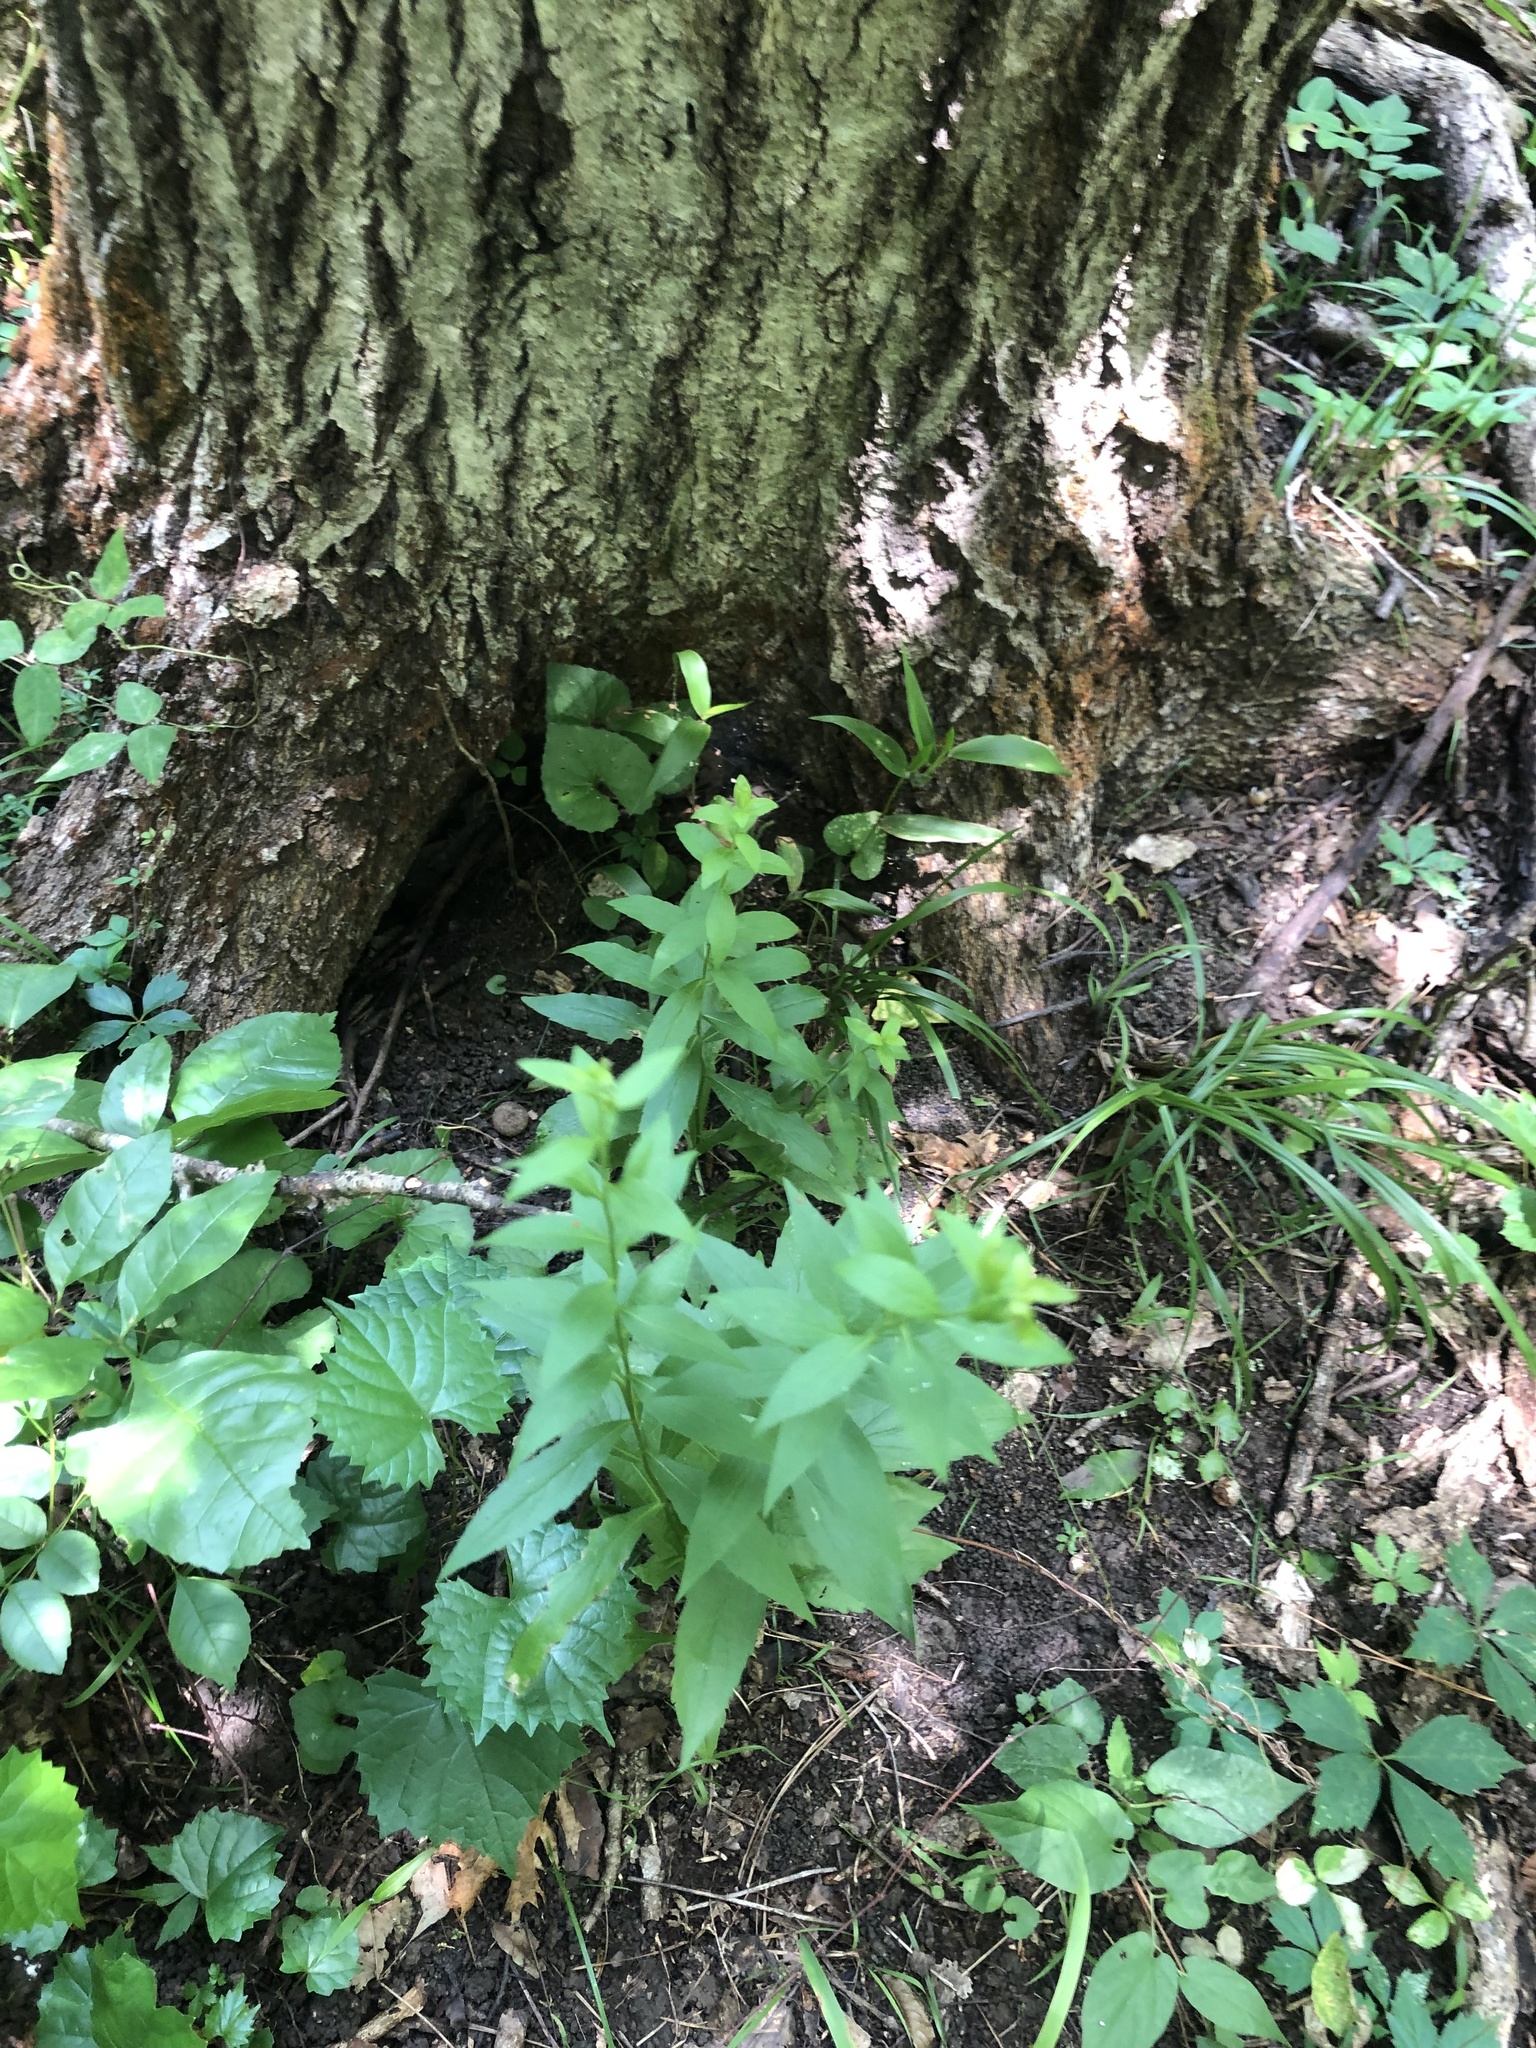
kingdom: Plantae
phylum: Tracheophyta
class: Magnoliopsida
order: Asterales
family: Asteraceae
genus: Solidago
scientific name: Solidago ulmifolia
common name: Elm-leaf goldenrod
